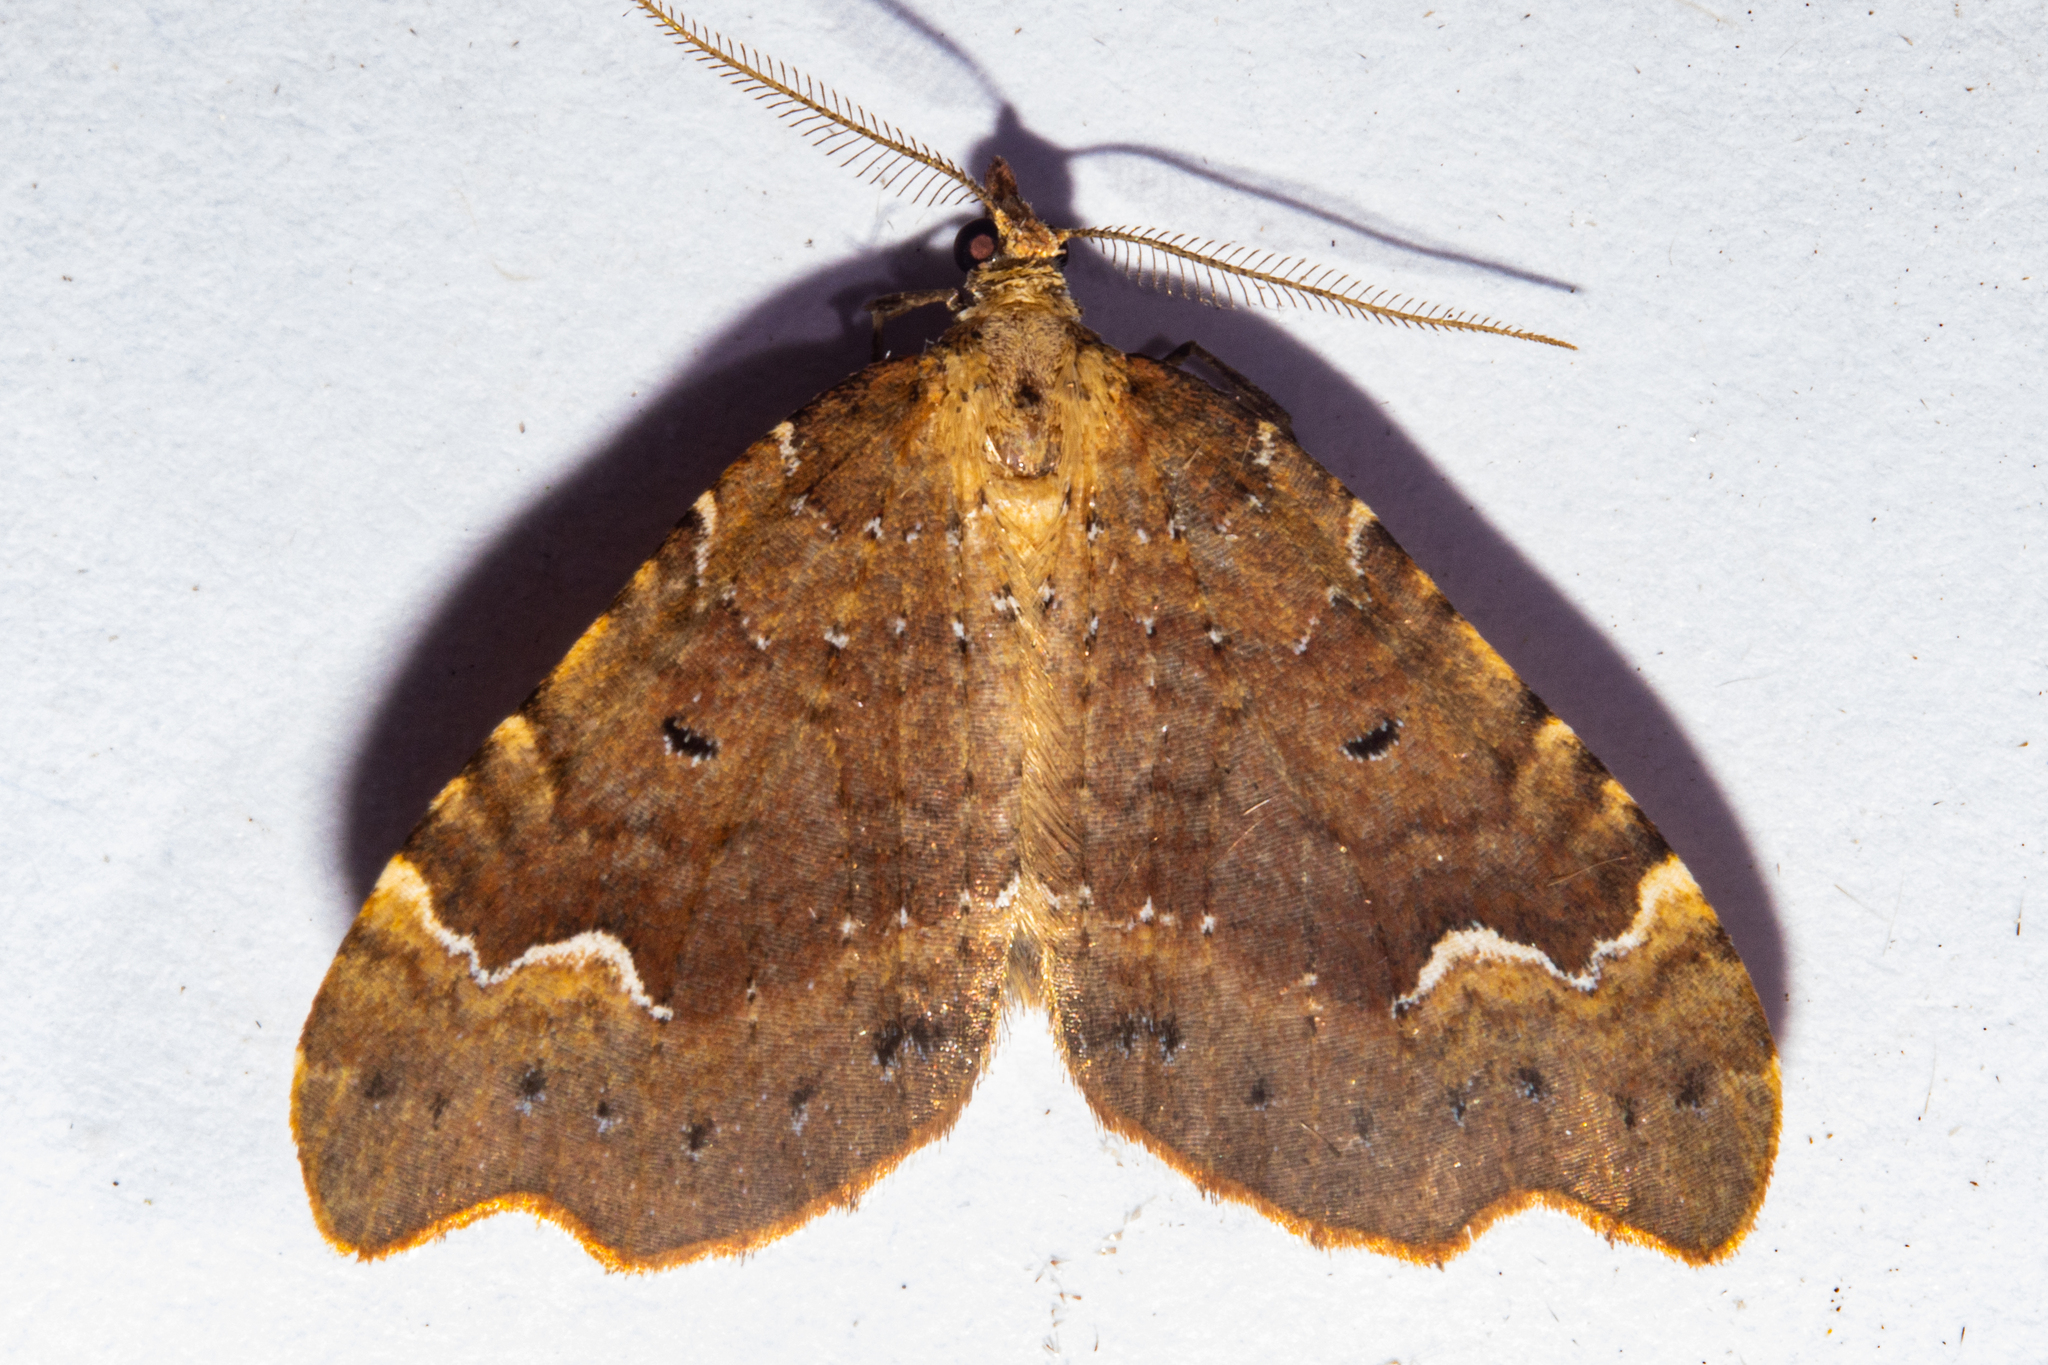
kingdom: Animalia
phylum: Arthropoda
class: Insecta
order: Lepidoptera
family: Geometridae
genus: Asaphodes
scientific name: Asaphodes camelias
